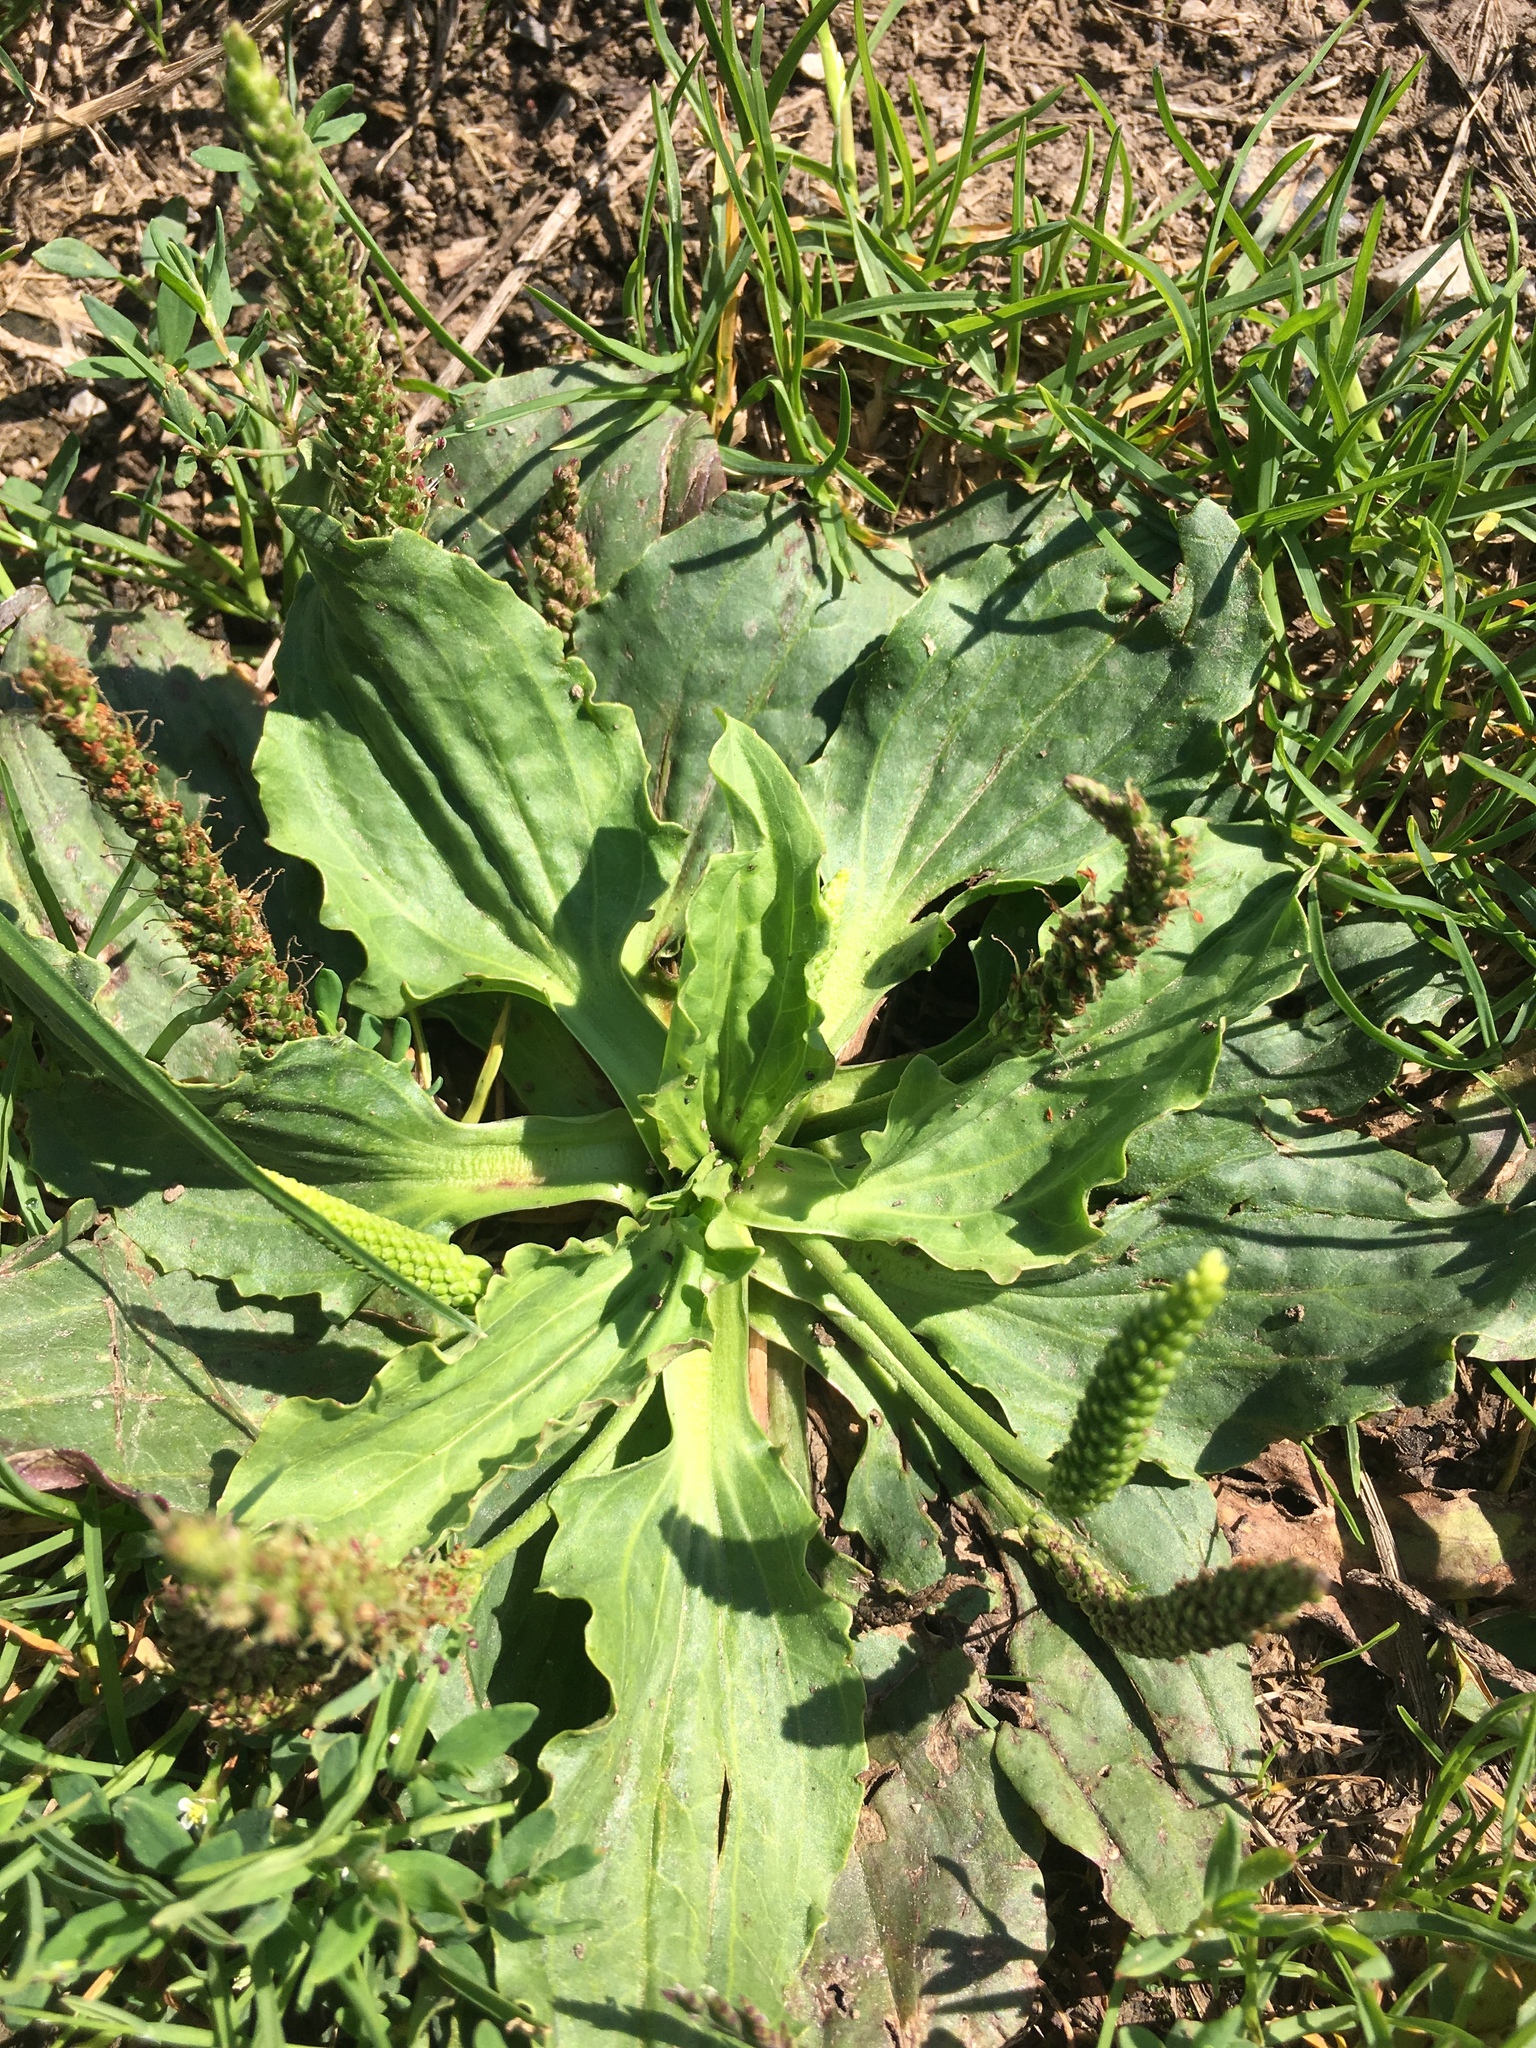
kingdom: Plantae
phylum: Tracheophyta
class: Magnoliopsida
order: Lamiales
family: Plantaginaceae
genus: Plantago
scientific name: Plantago major
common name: Common plantain
